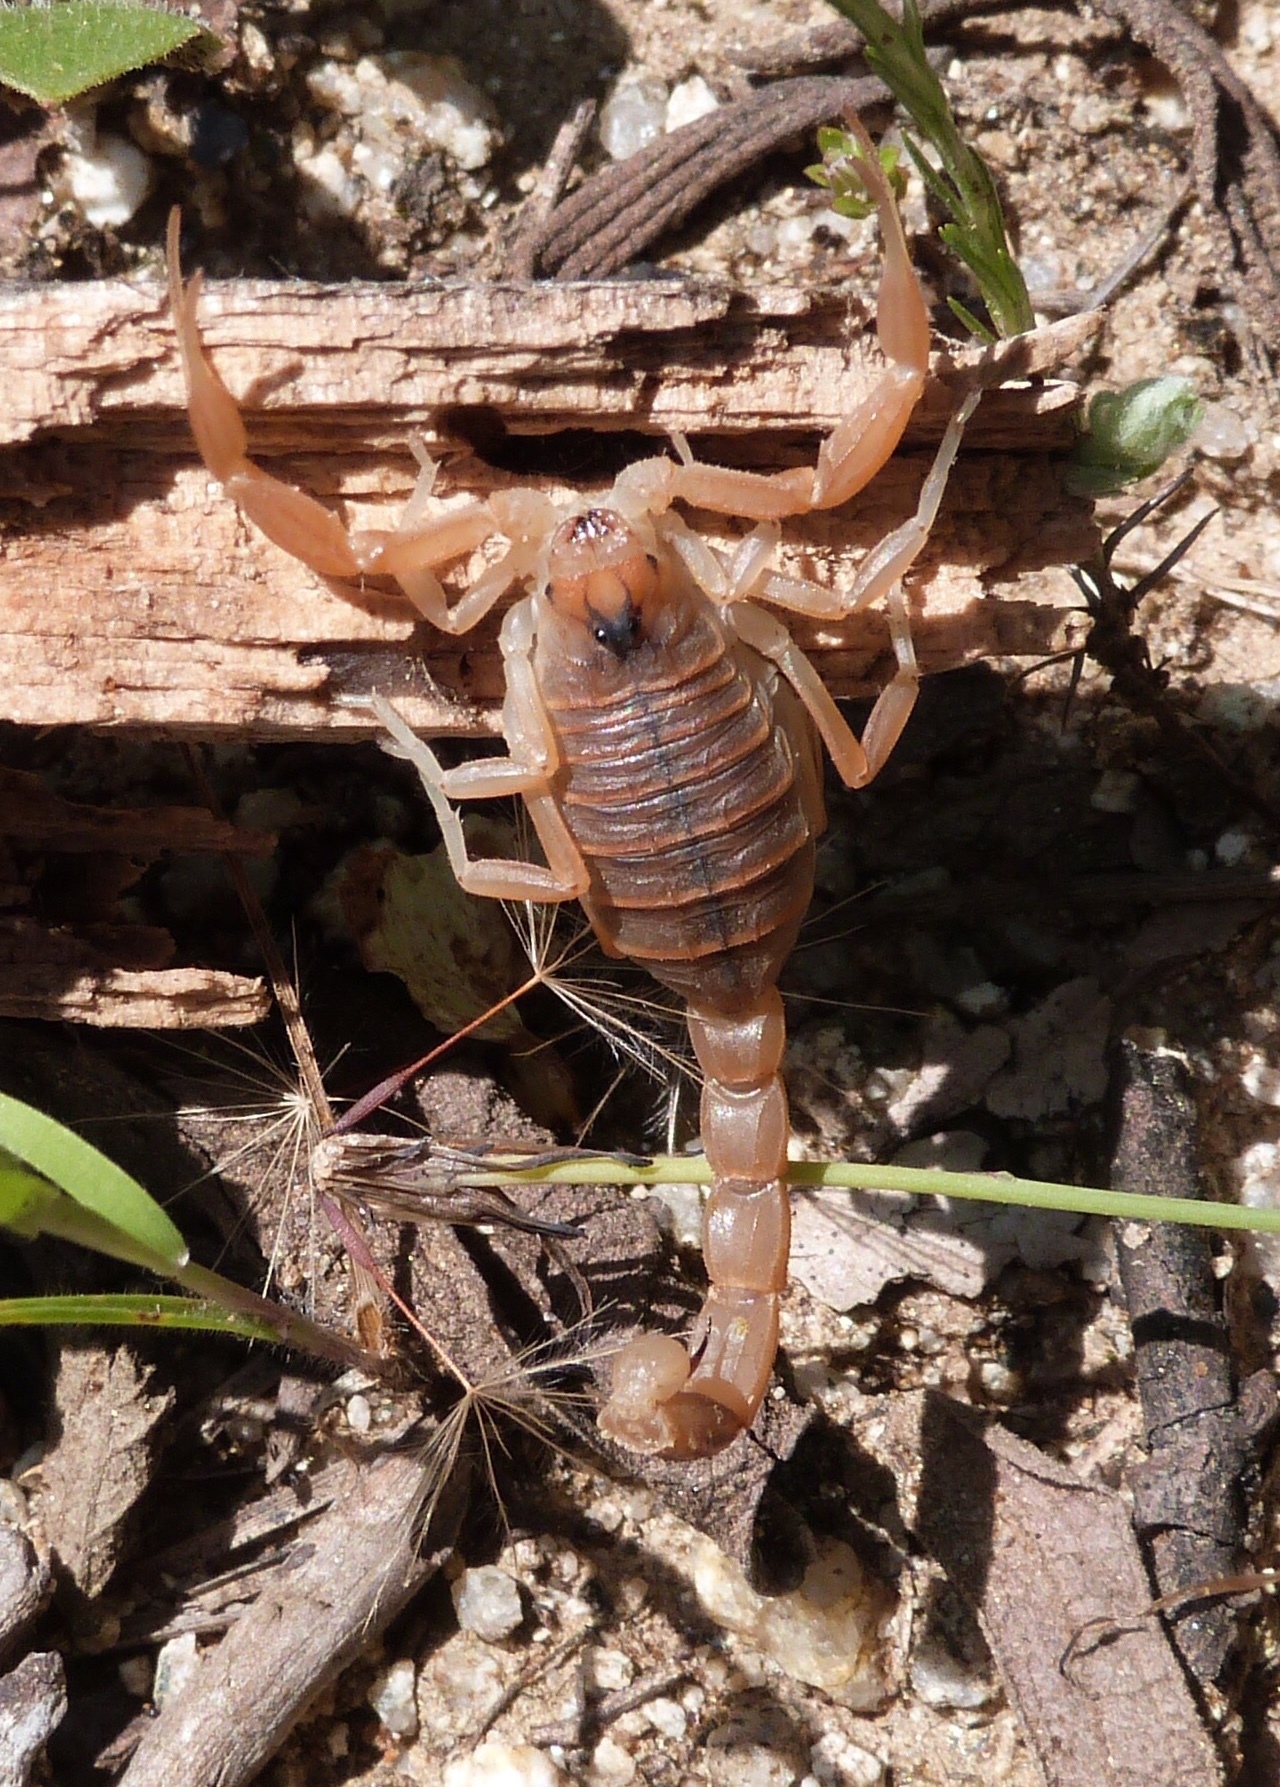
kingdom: Animalia
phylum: Arthropoda
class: Arachnida
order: Scorpiones
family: Buthidae
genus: Buthus
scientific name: Buthus occitanus
